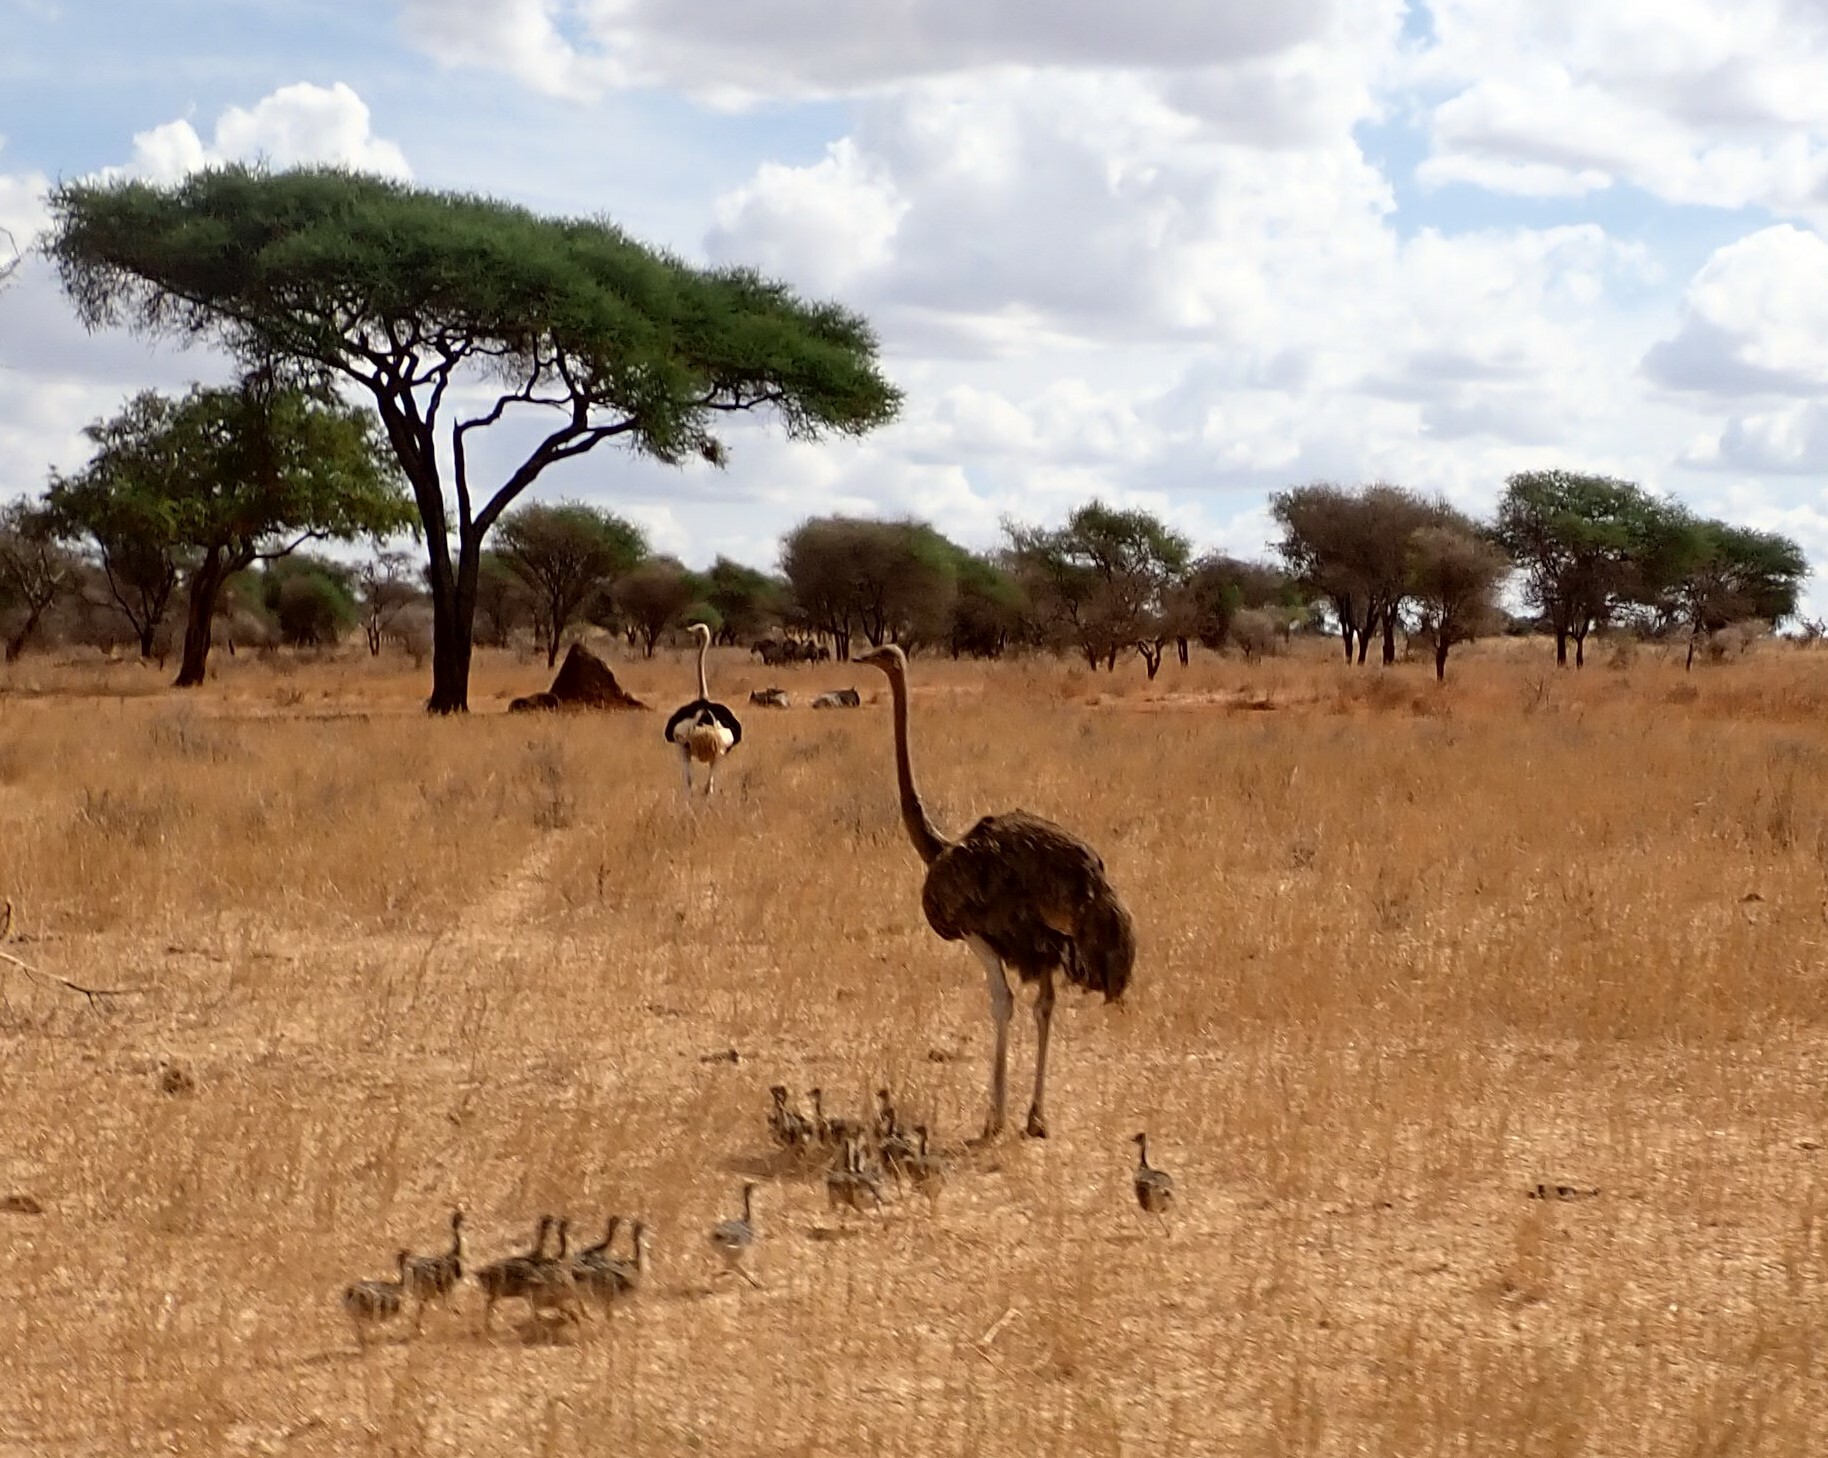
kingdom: Animalia
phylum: Chordata
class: Aves
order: Struthioniformes
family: Struthionidae
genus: Struthio
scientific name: Struthio camelus
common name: Common ostrich
